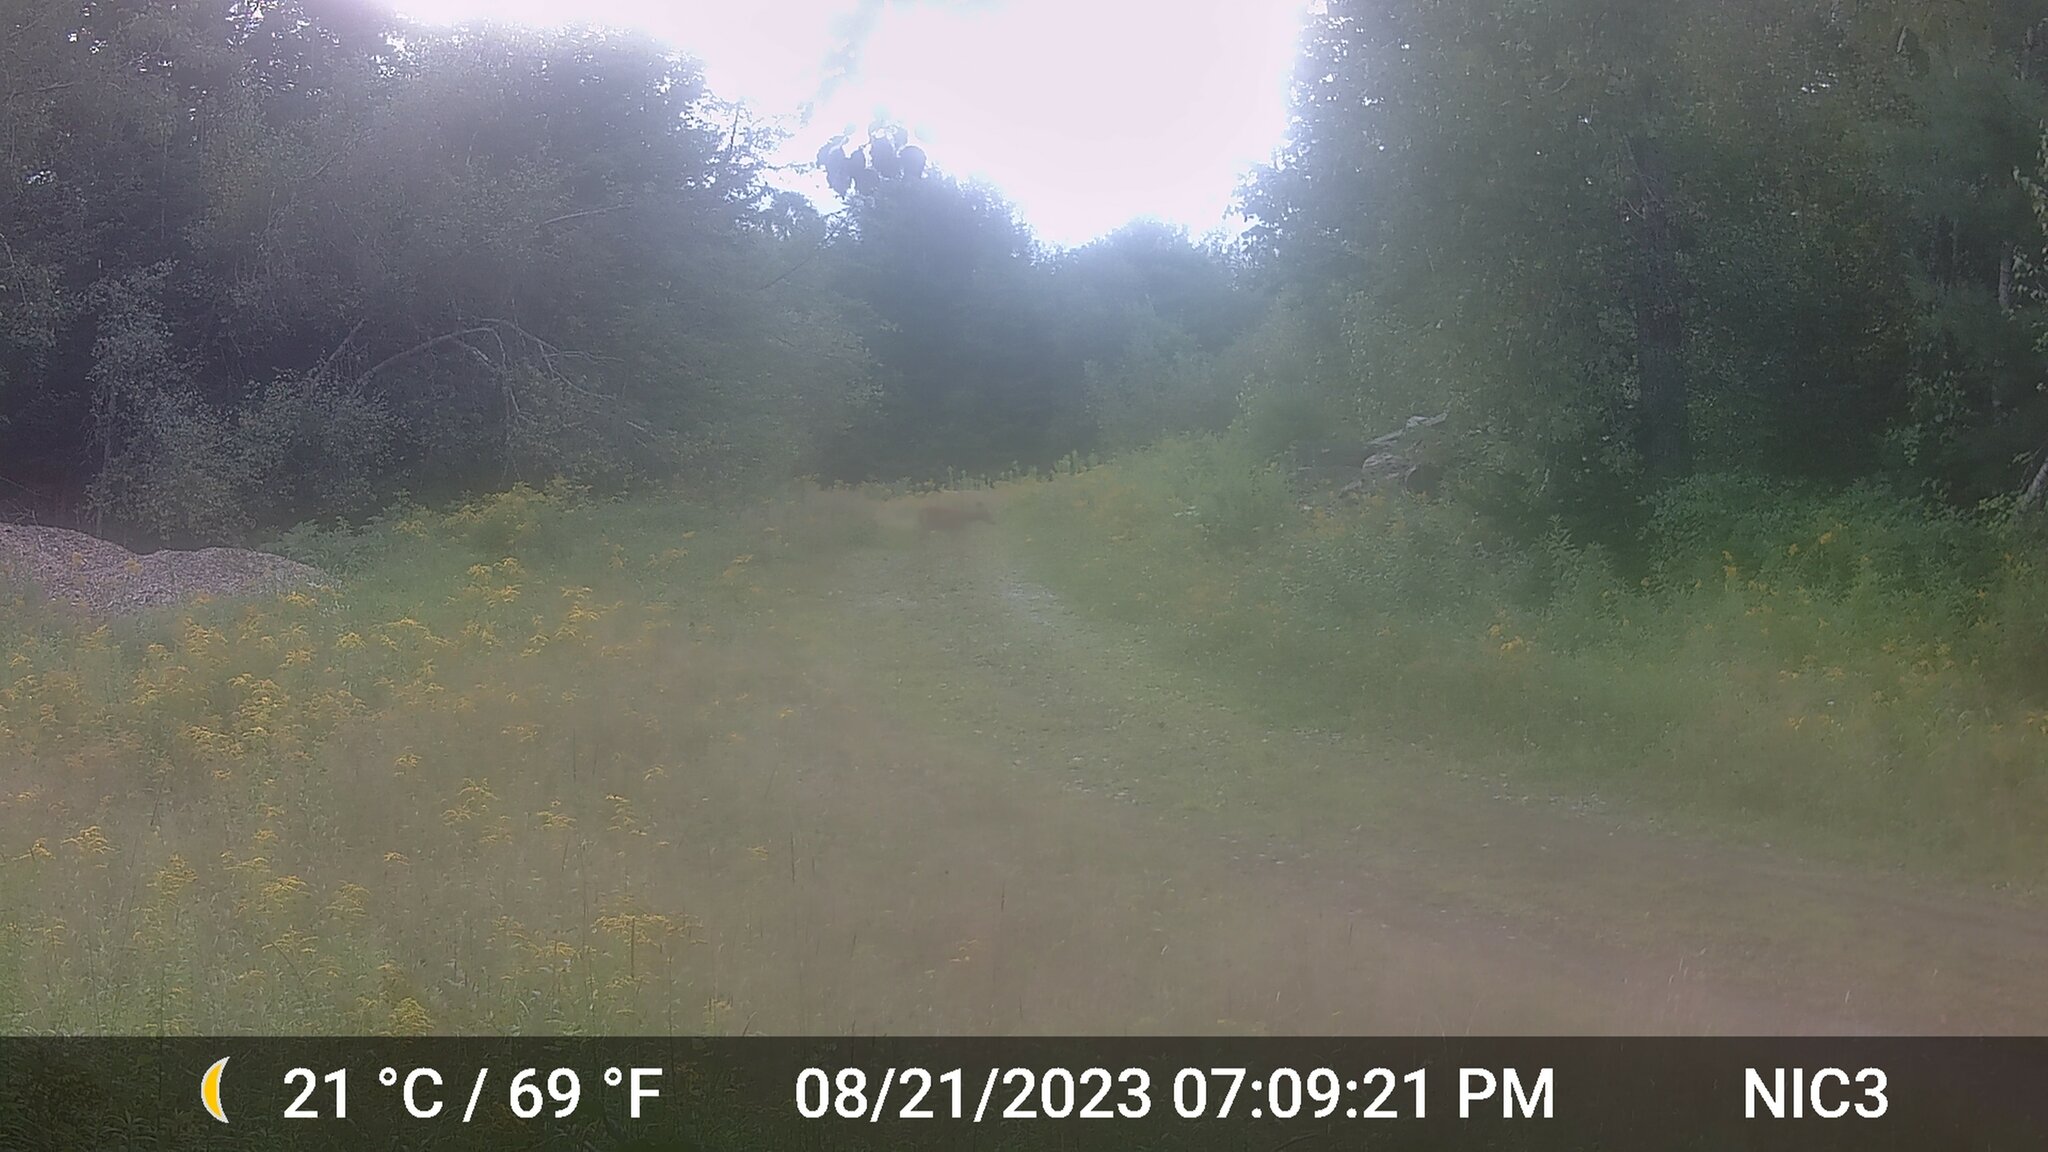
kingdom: Animalia
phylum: Chordata
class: Mammalia
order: Artiodactyla
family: Cervidae
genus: Odocoileus
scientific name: Odocoileus virginianus
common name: White-tailed deer
